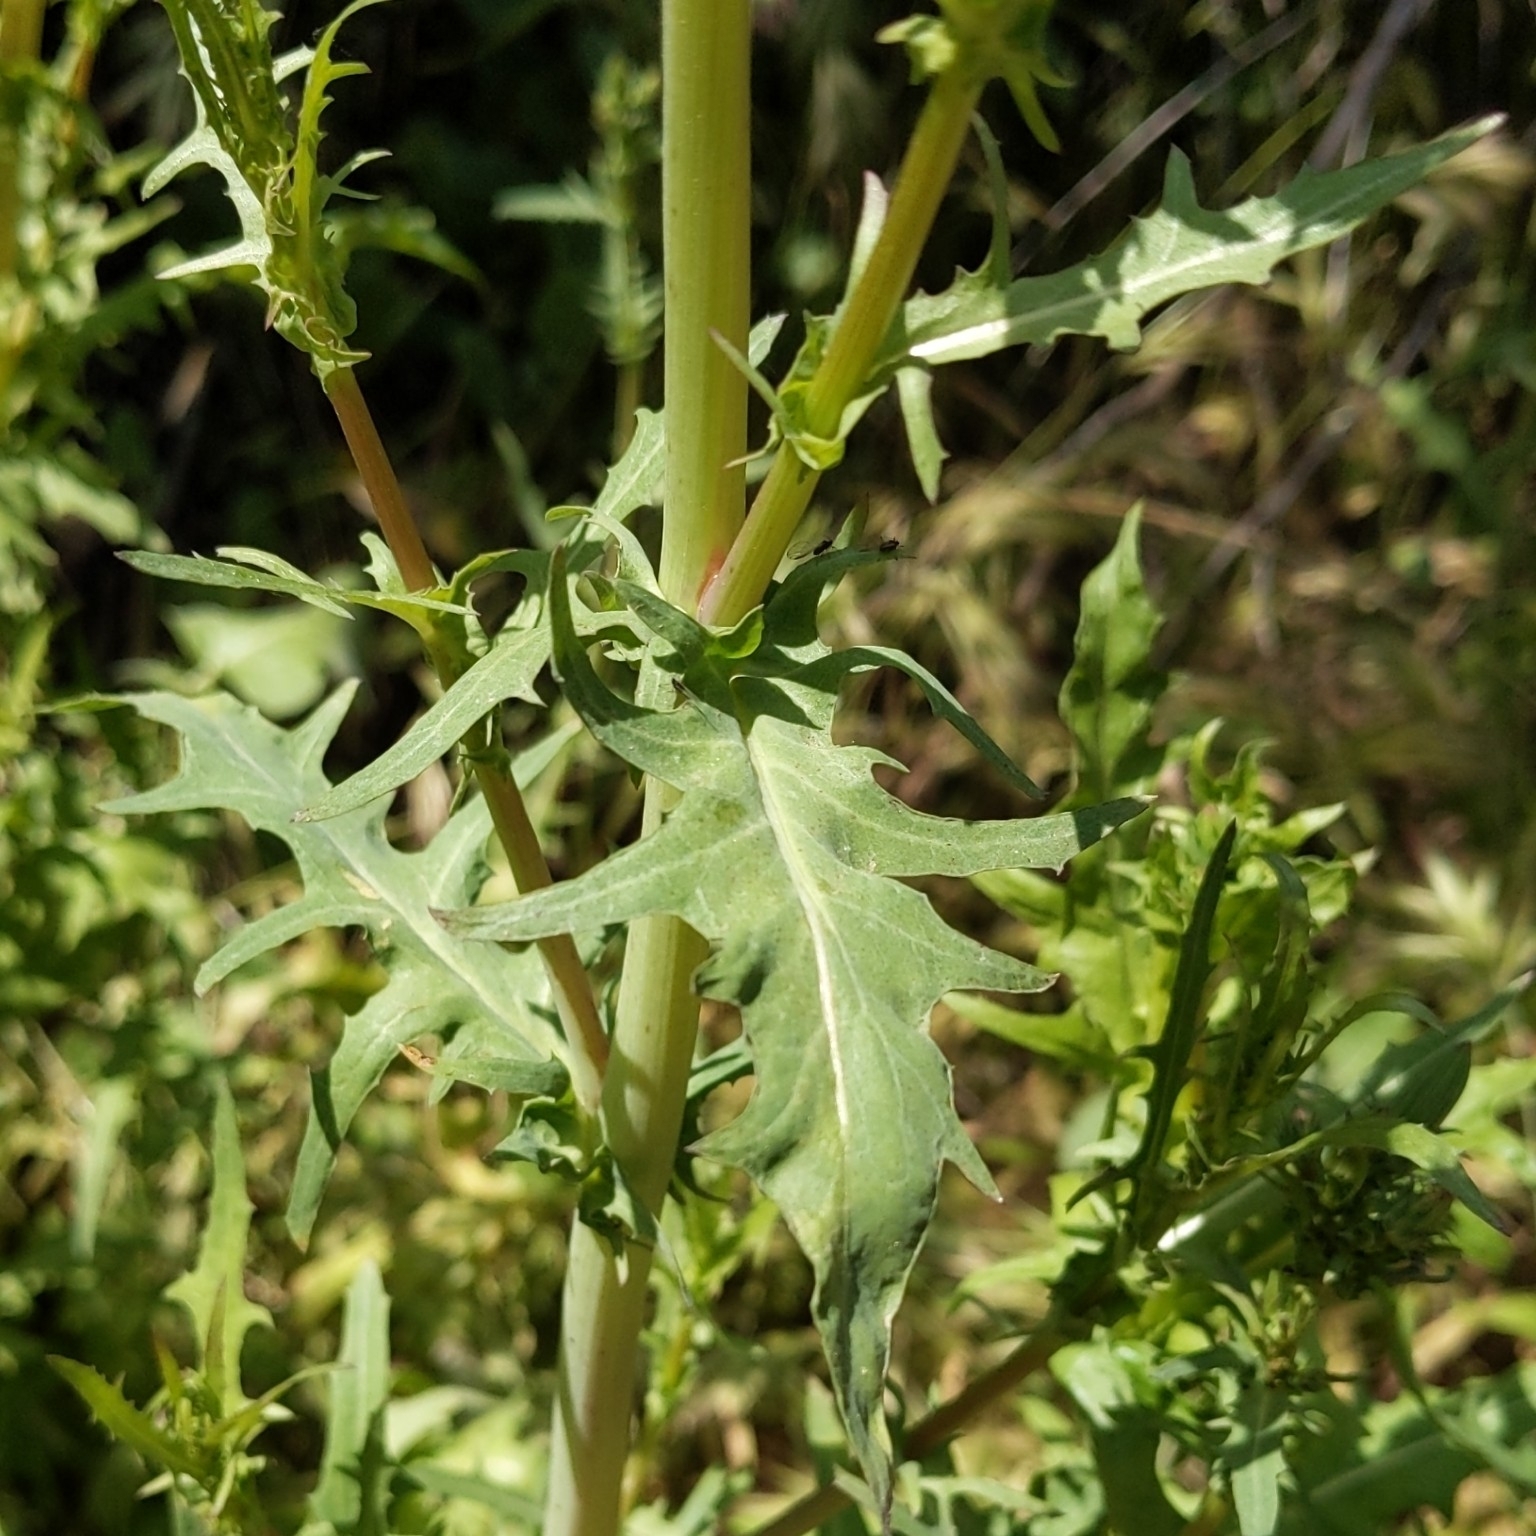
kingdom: Plantae
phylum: Tracheophyta
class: Magnoliopsida
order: Asterales
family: Asteraceae
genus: Rafinesquia
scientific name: Rafinesquia californica
